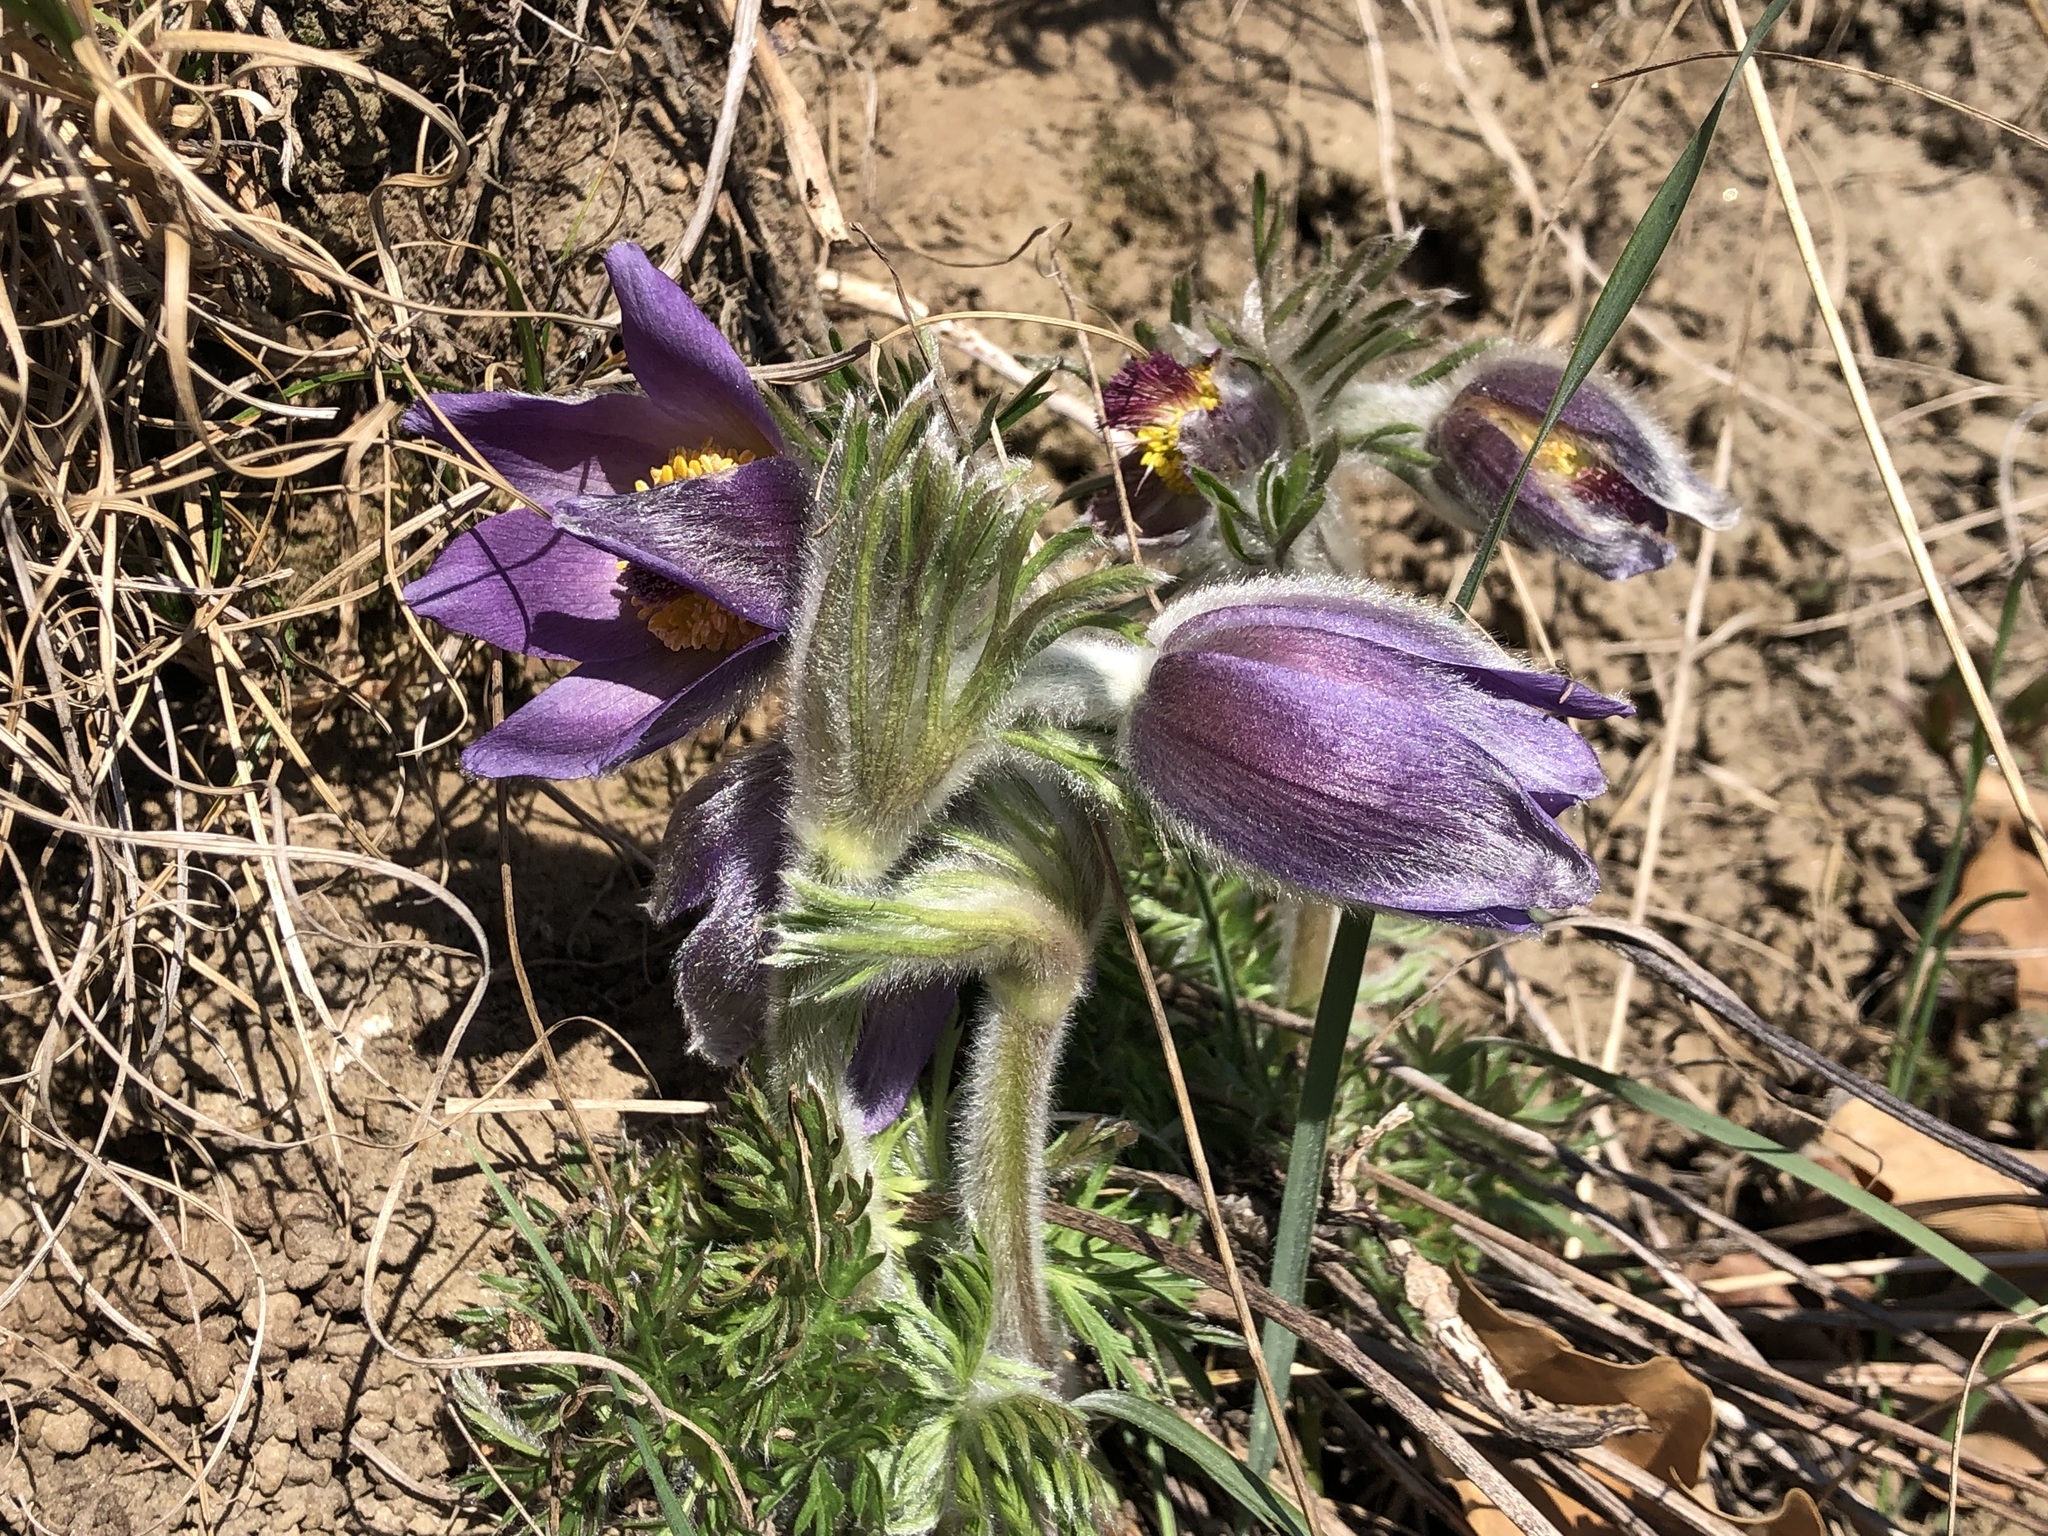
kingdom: Plantae
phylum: Tracheophyta
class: Magnoliopsida
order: Ranunculales
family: Ranunculaceae
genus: Pulsatilla
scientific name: Pulsatilla montana
